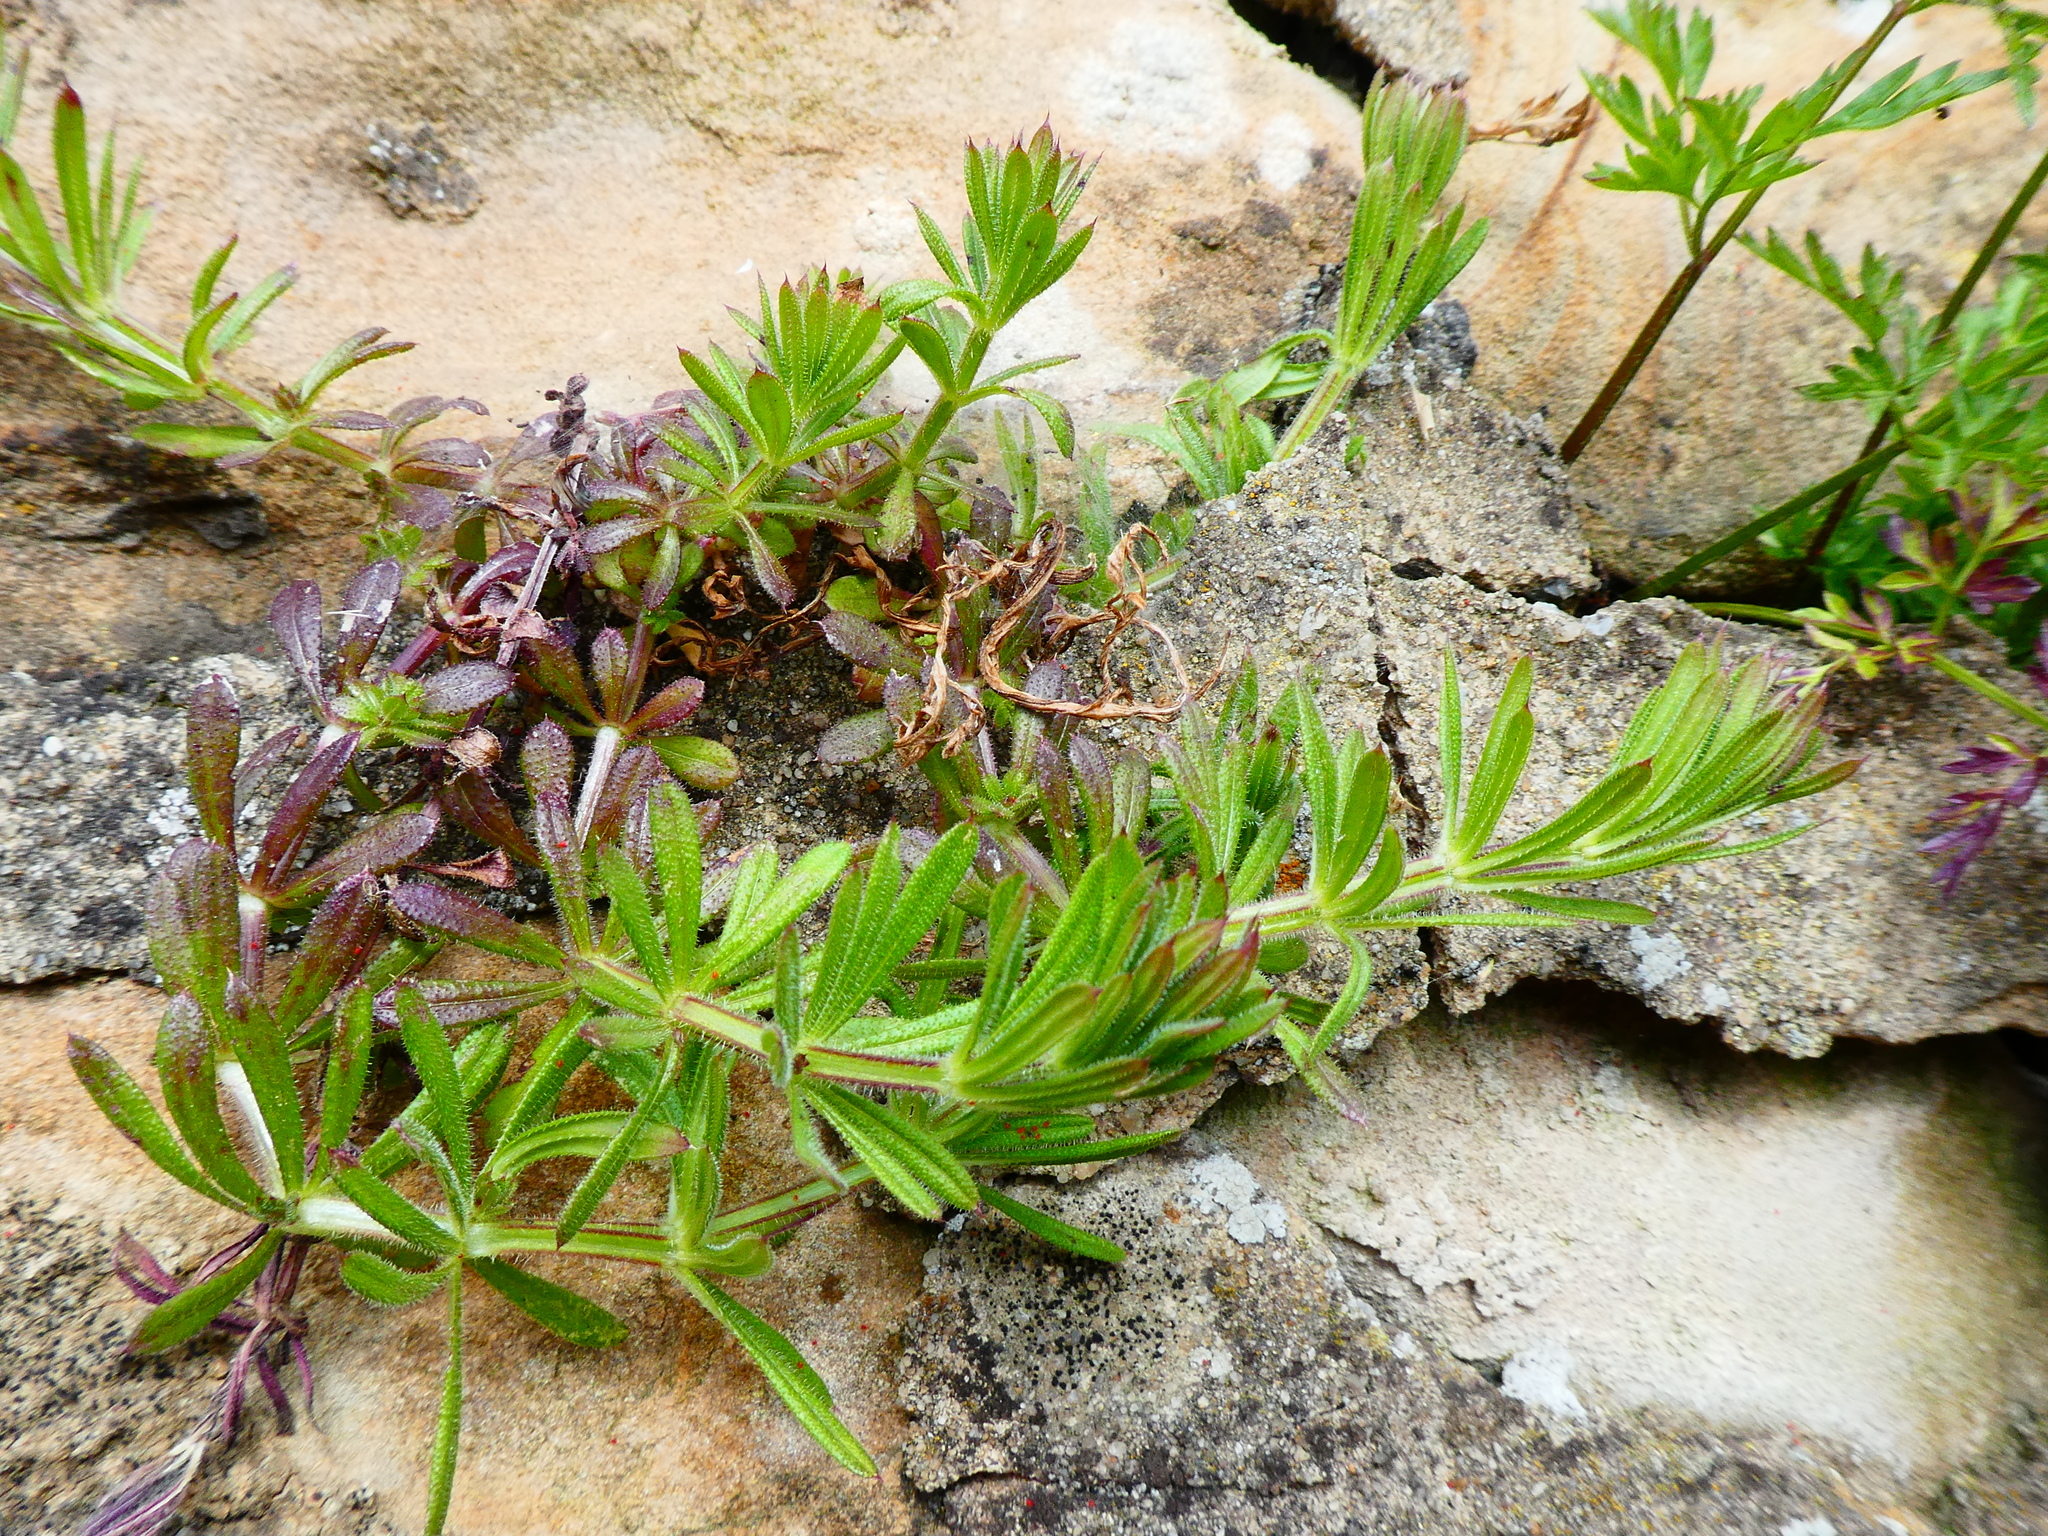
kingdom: Plantae
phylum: Tracheophyta
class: Magnoliopsida
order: Gentianales
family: Rubiaceae
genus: Galium
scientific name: Galium aparine
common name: Cleavers
